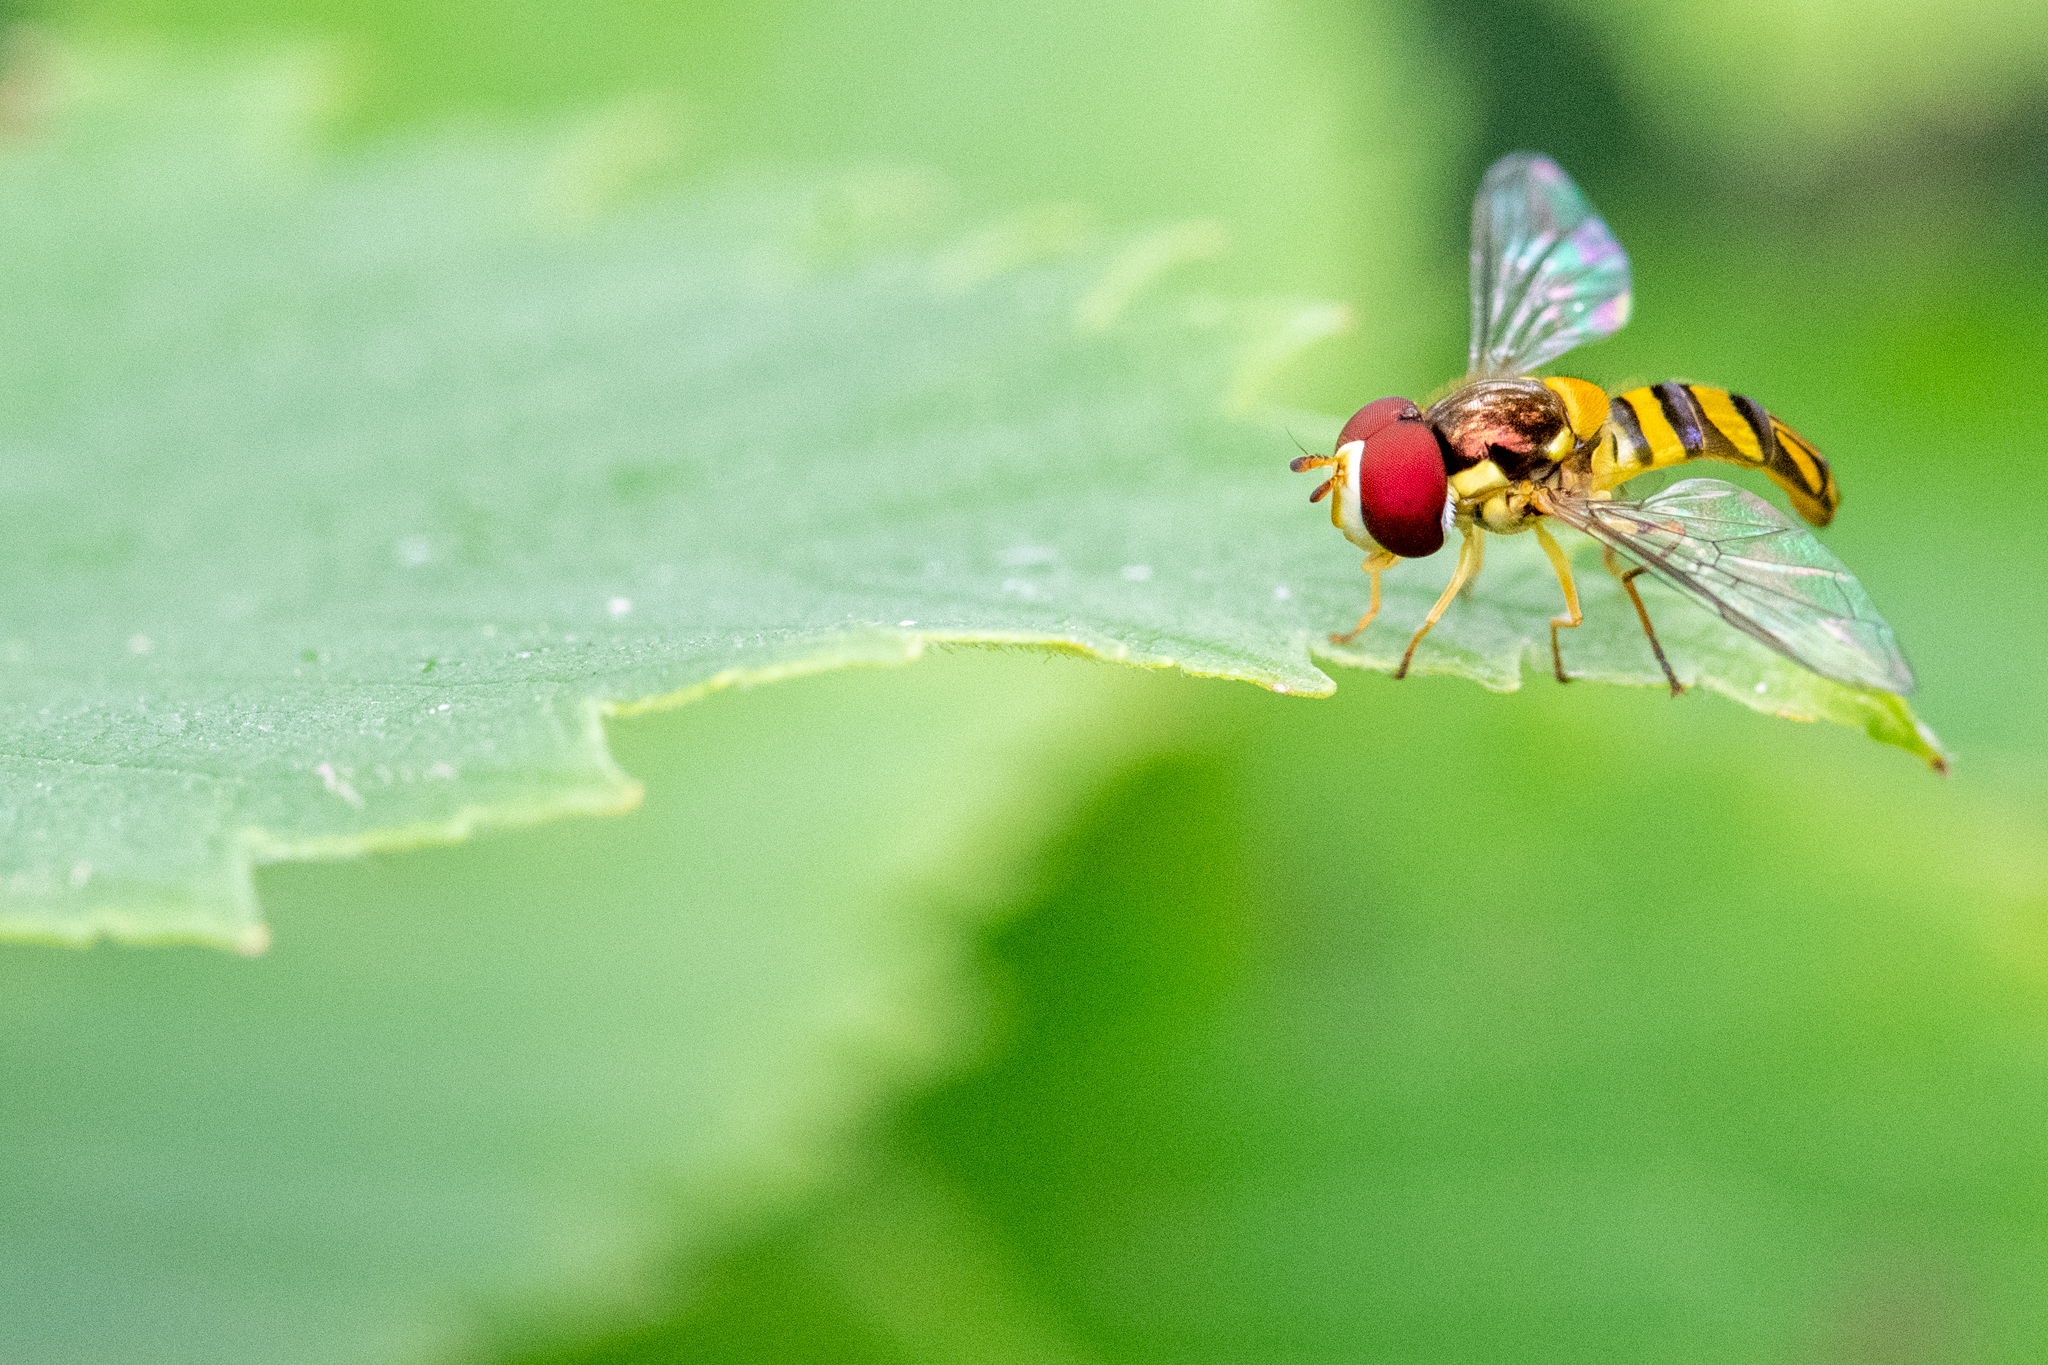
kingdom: Animalia
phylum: Arthropoda
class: Insecta
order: Diptera
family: Syrphidae
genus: Allograpta
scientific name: Allograpta obliqua
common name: Common oblique syrphid
